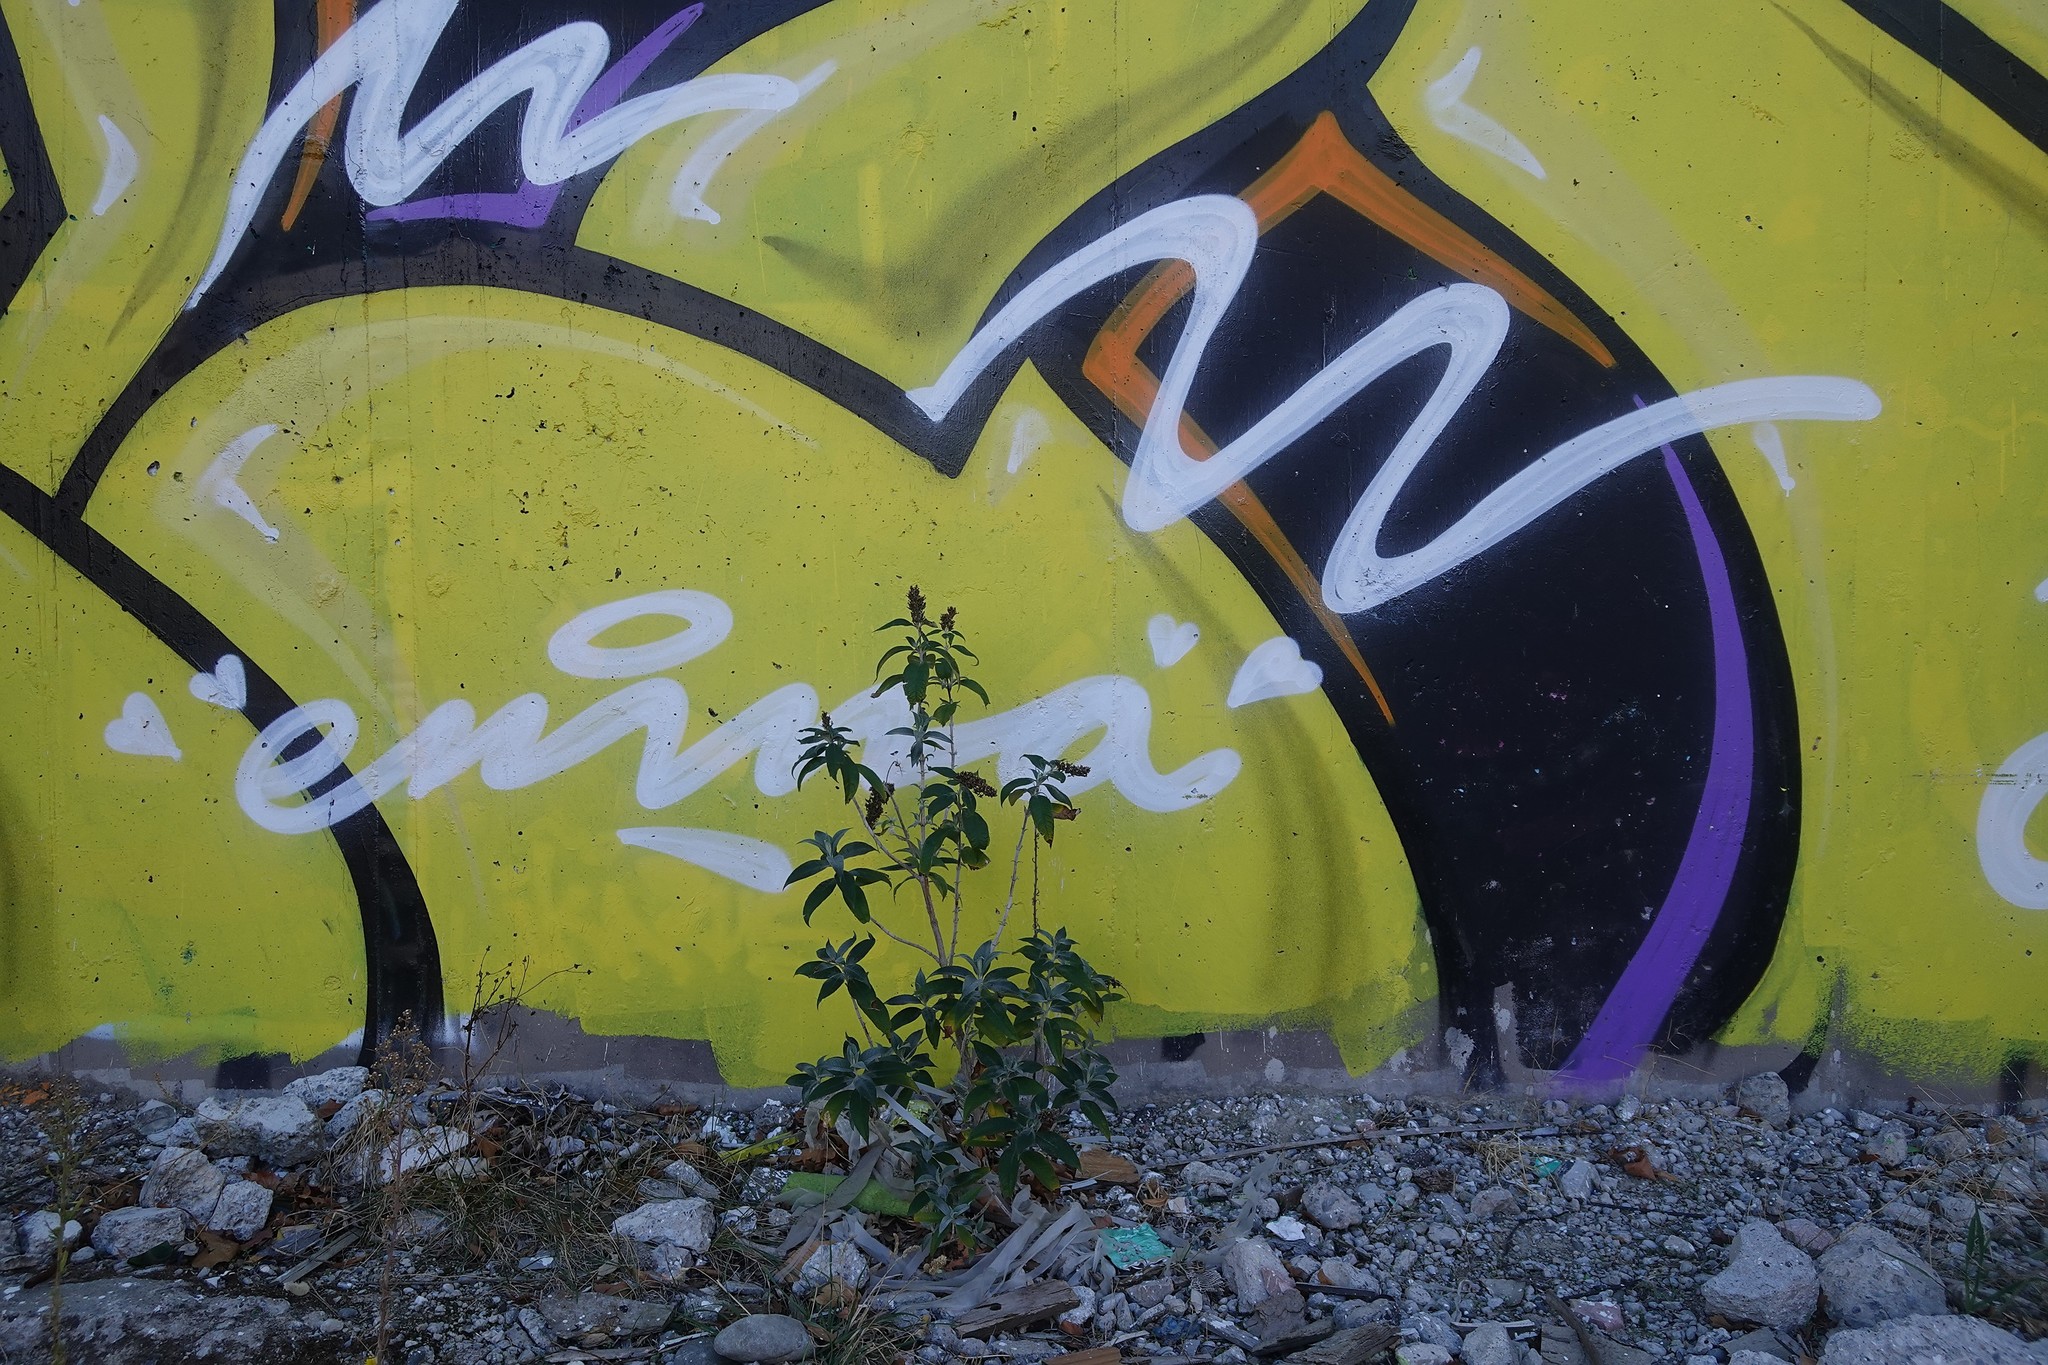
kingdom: Plantae
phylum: Tracheophyta
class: Magnoliopsida
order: Lamiales
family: Scrophulariaceae
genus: Buddleja
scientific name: Buddleja davidii
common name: Butterfly-bush
